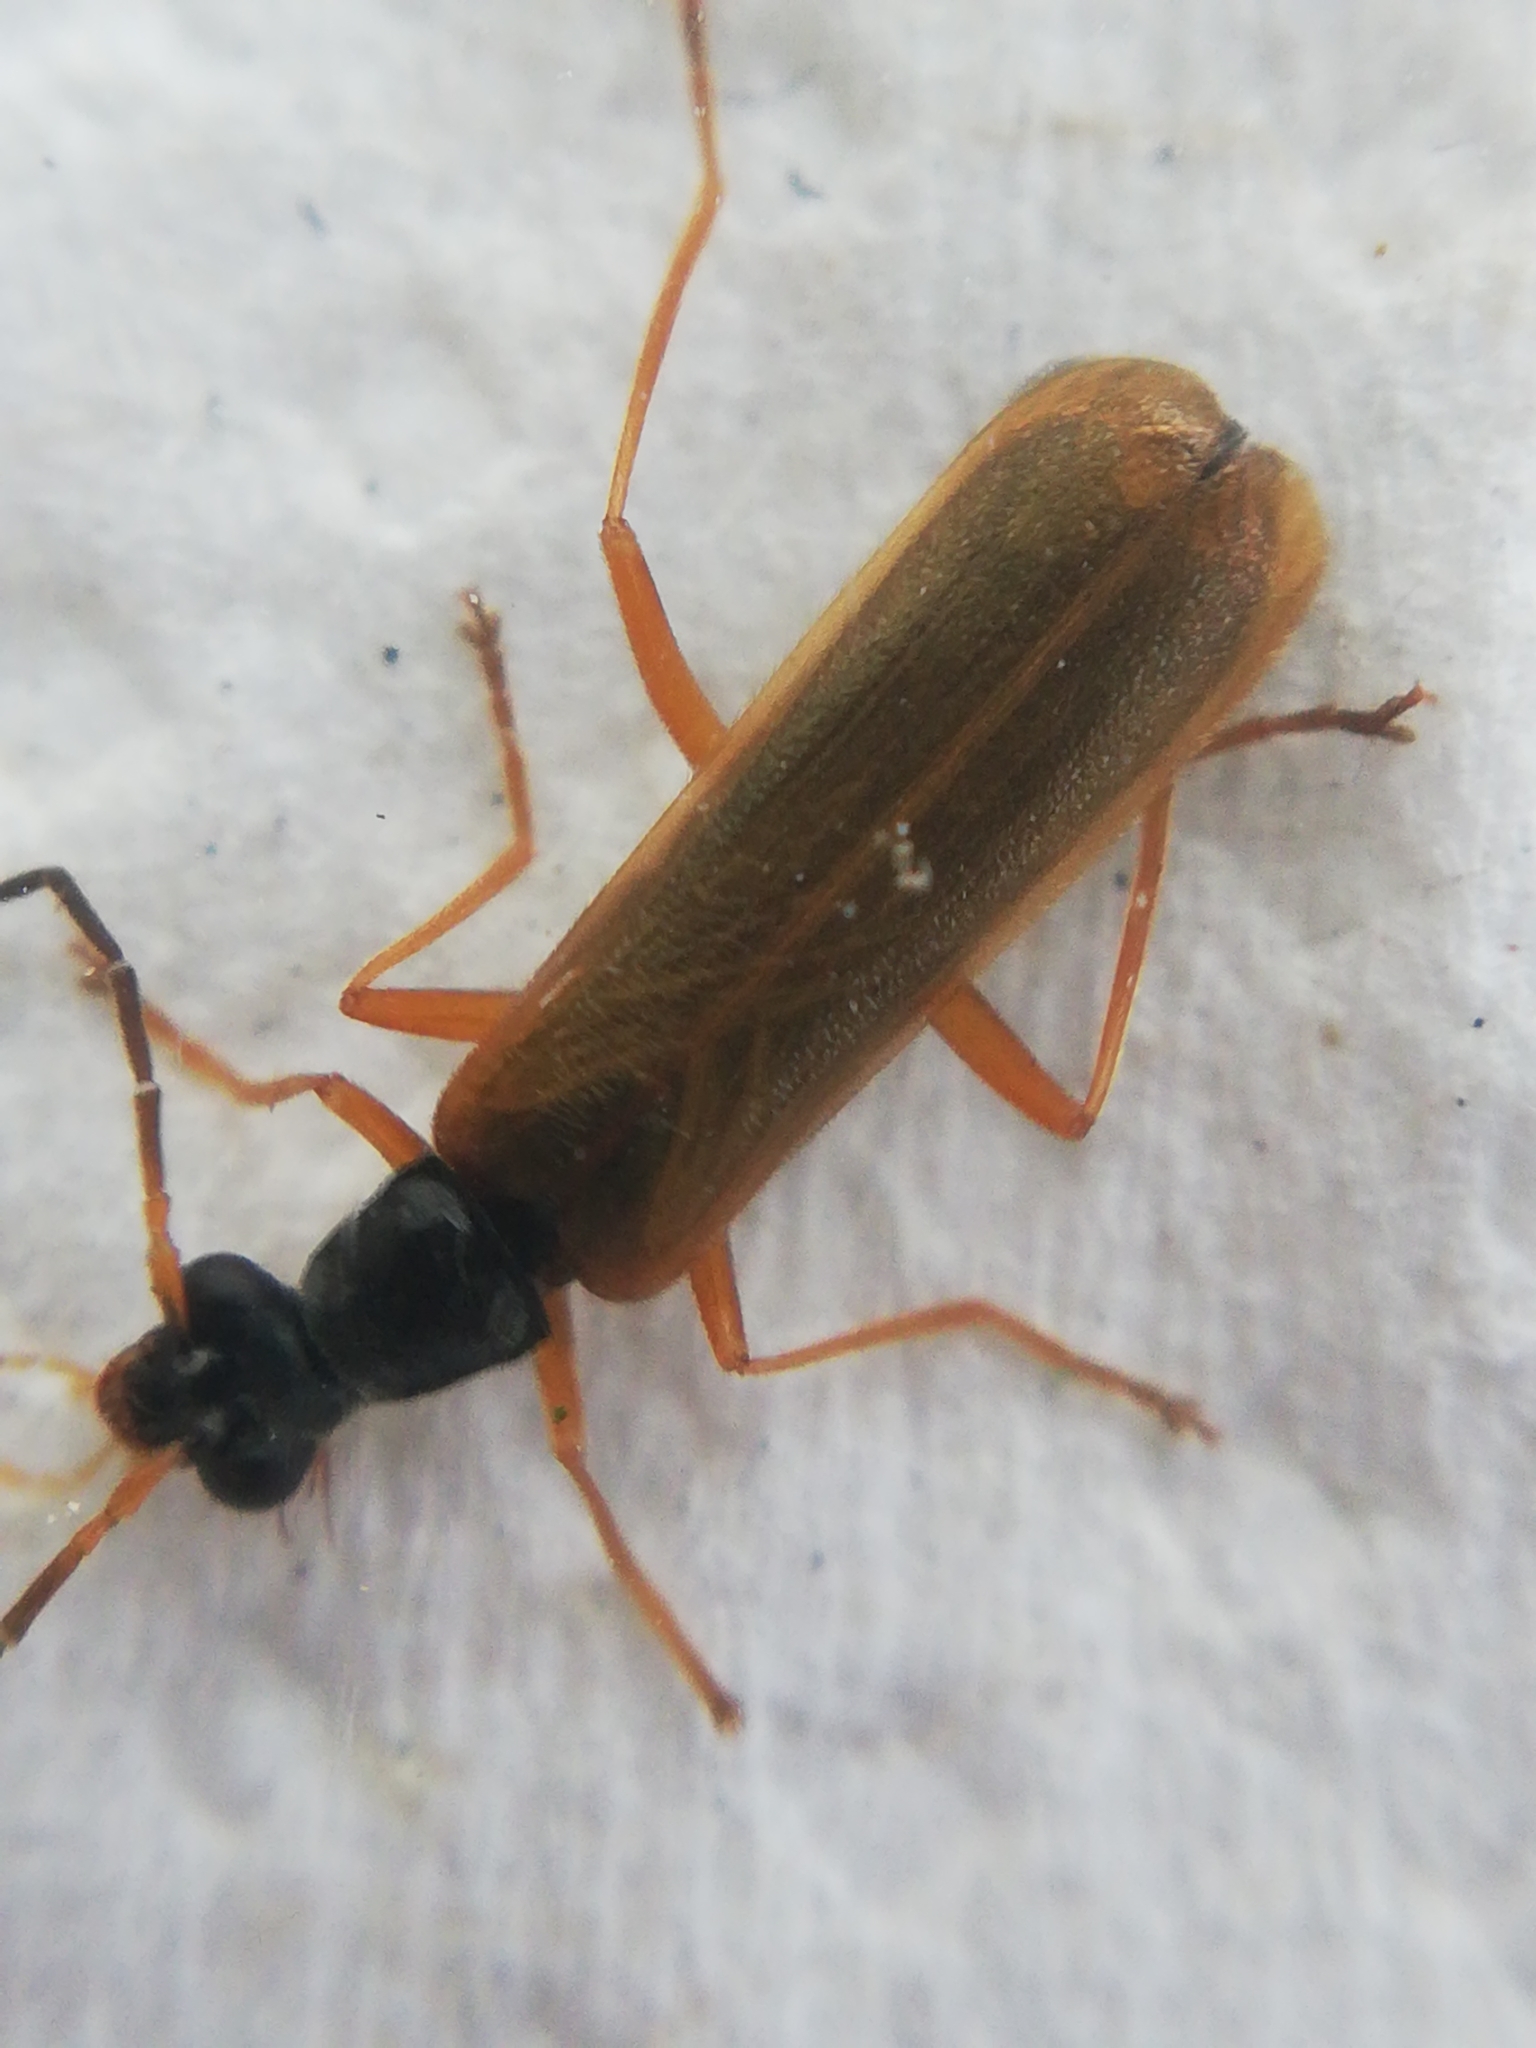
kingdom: Animalia
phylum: Arthropoda
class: Insecta
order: Coleoptera
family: Cantharidae
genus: Rhagonycha
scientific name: Rhagonycha lignosa
